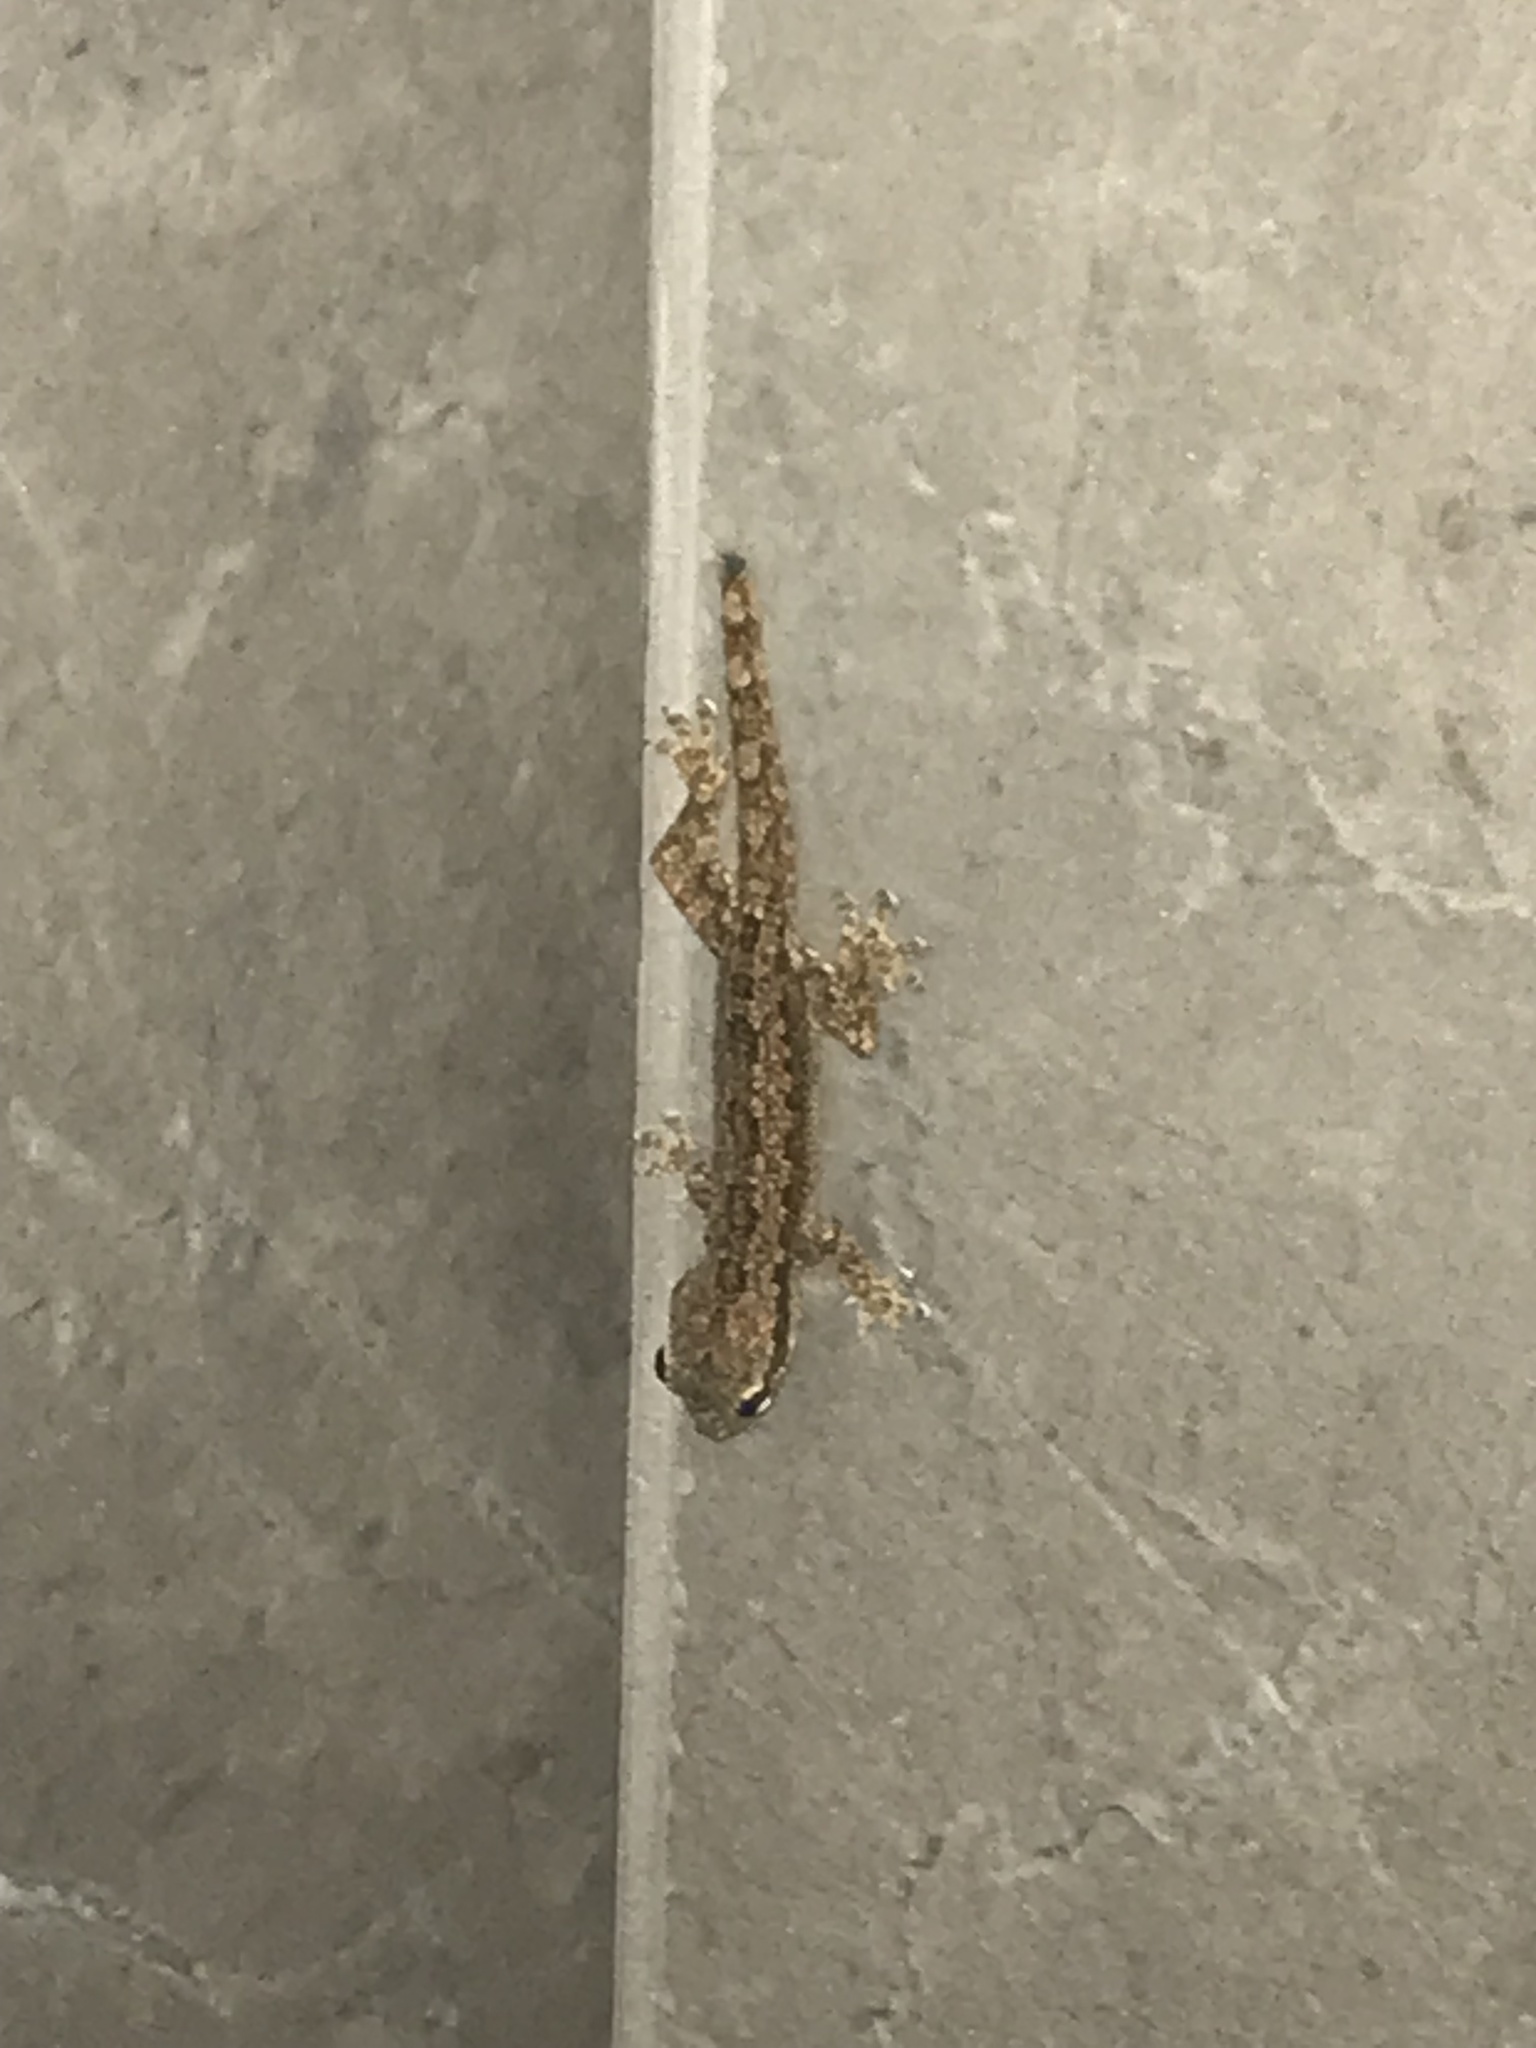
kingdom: Animalia
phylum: Chordata
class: Squamata
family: Gekkonidae
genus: Hemidactylus
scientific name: Hemidactylus platyurus
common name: Flat-tailed house gecko
